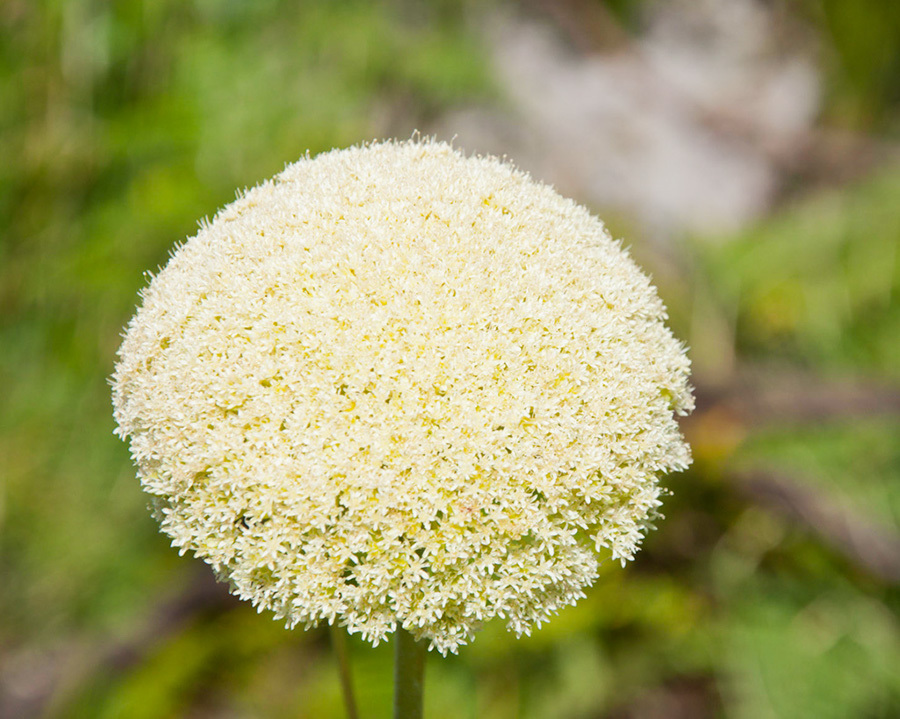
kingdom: Plantae
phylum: Tracheophyta
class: Magnoliopsida
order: Apiales
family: Apiaceae
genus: Hermas
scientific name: Hermas villosa
